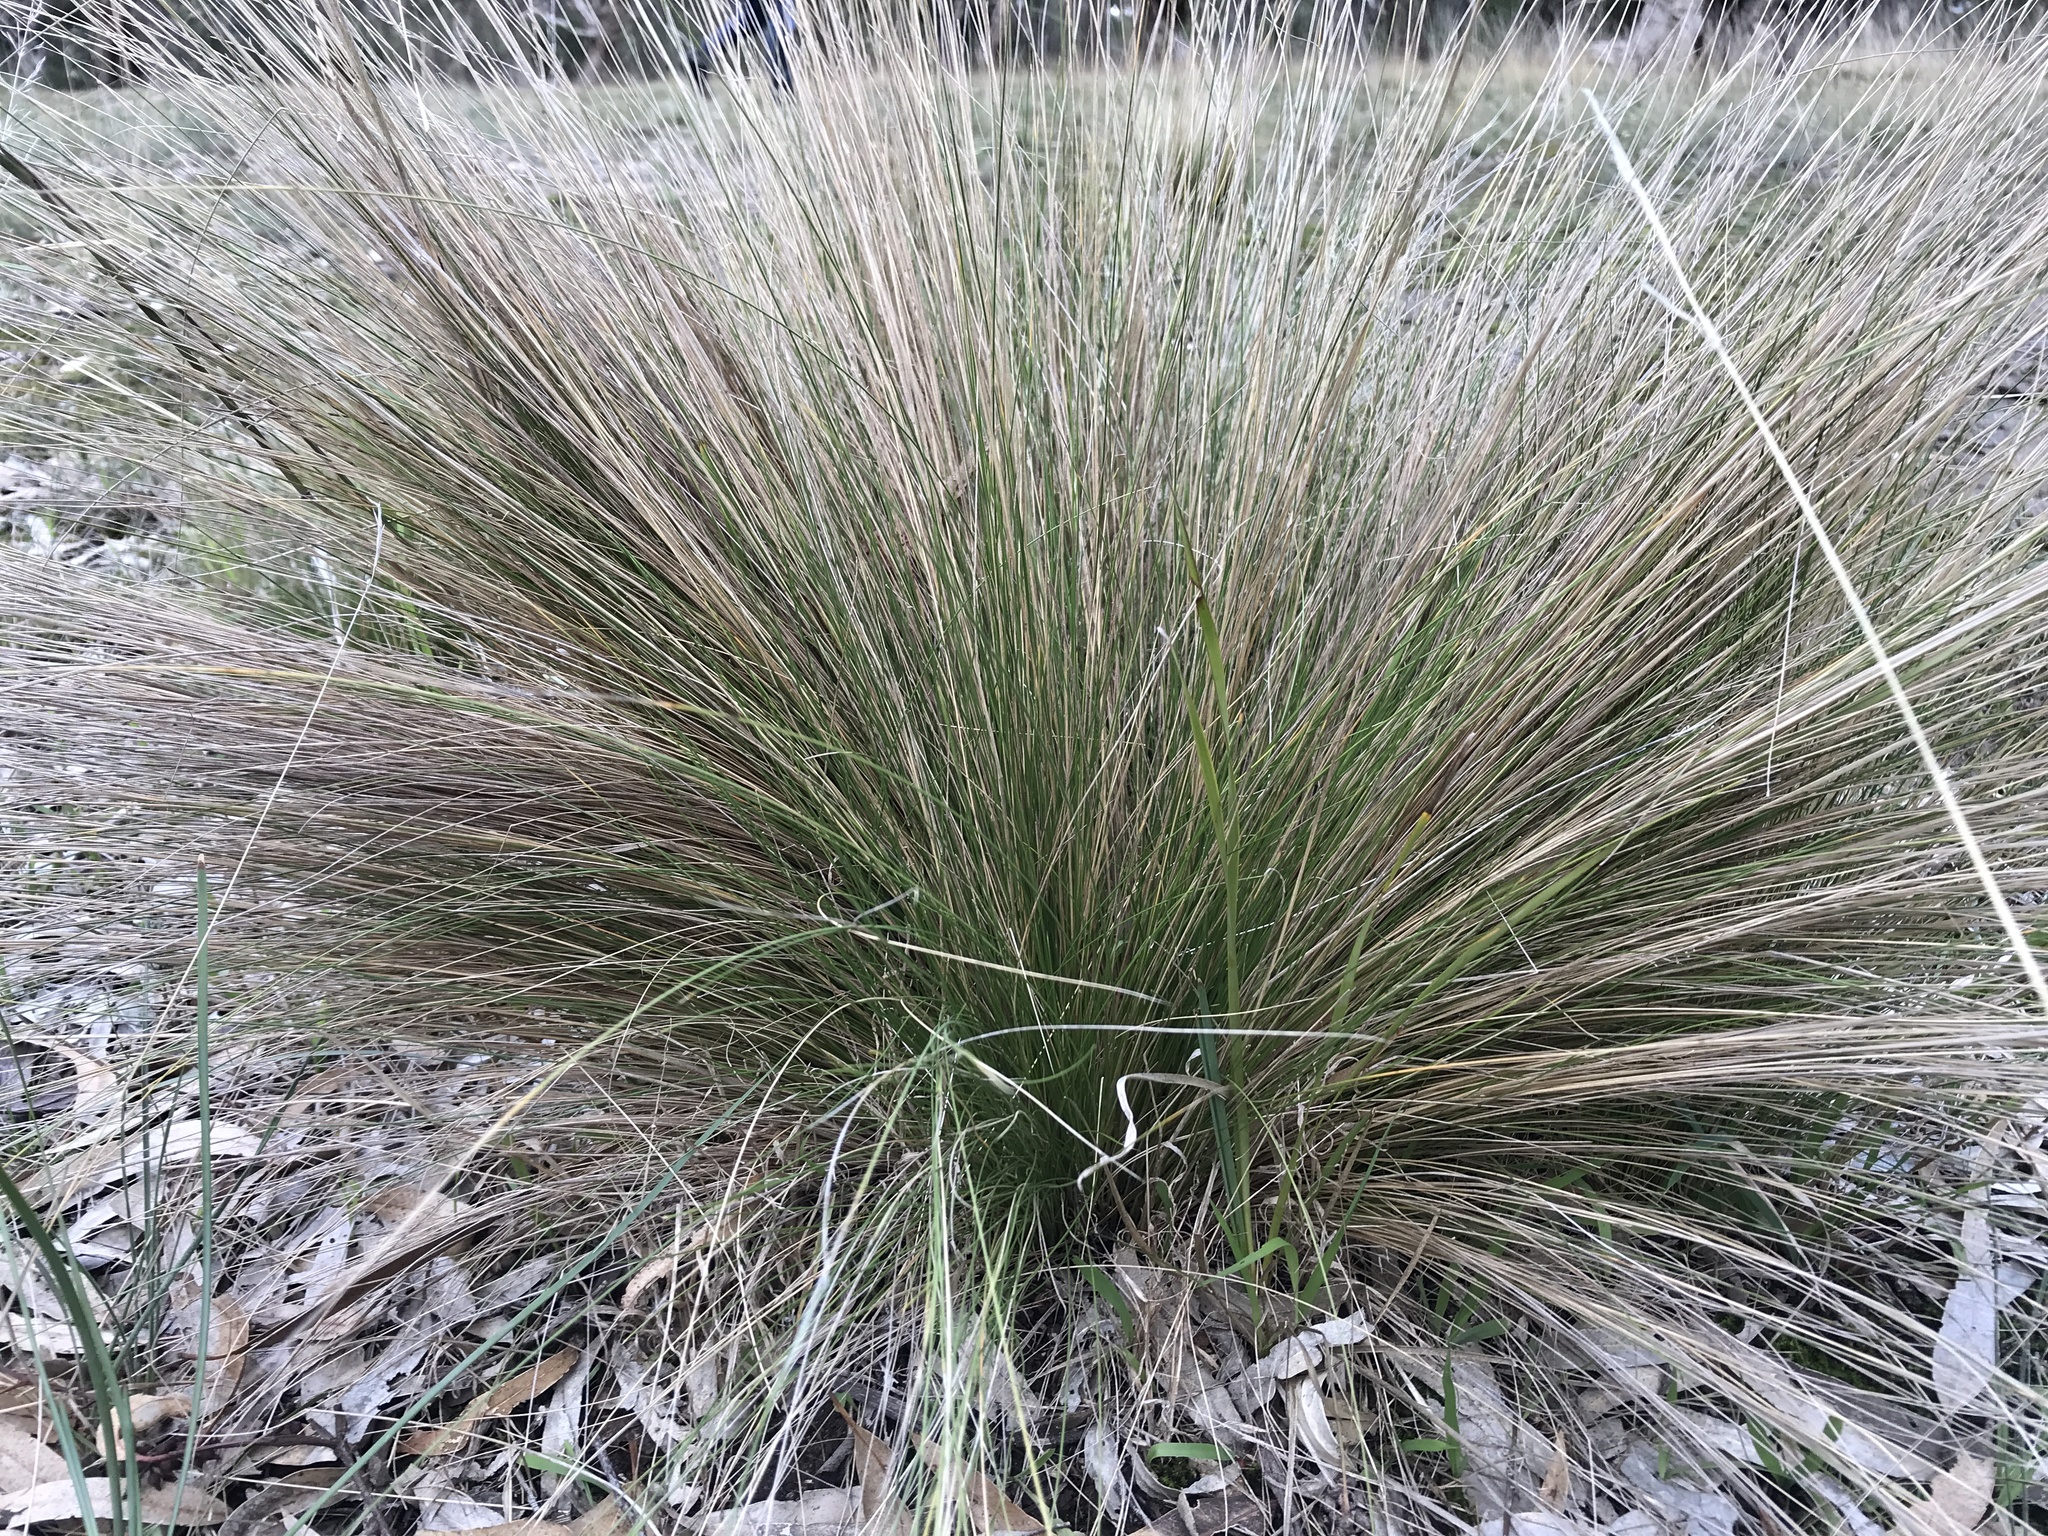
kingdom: Plantae
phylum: Tracheophyta
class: Liliopsida
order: Poales
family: Poaceae
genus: Nassella
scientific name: Nassella trichotoma
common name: Serrated tussock grass
